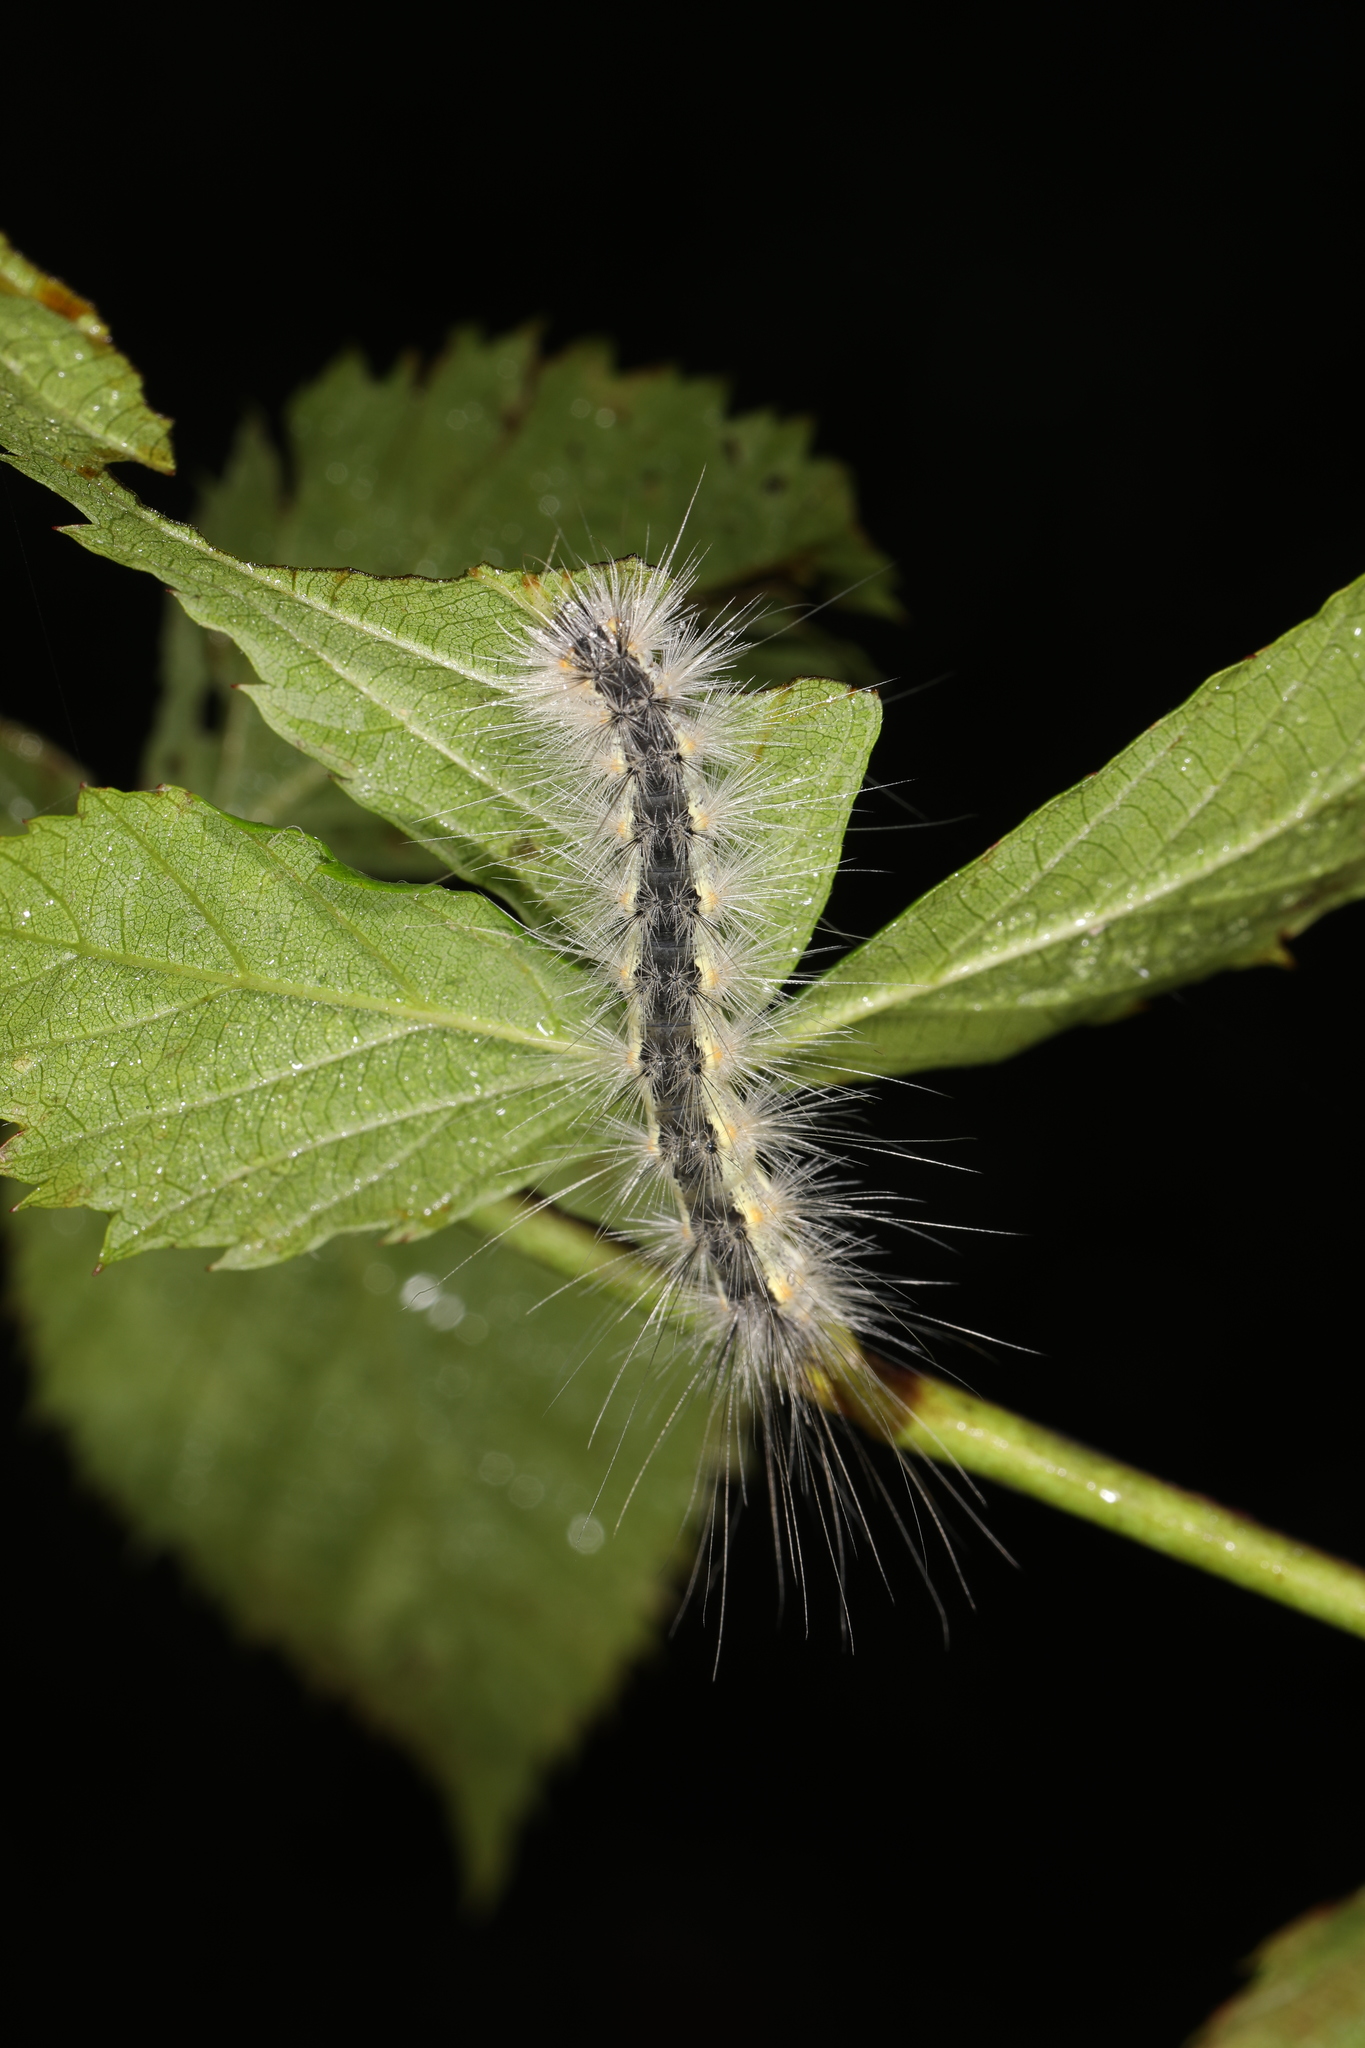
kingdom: Animalia
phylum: Arthropoda
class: Insecta
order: Lepidoptera
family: Erebidae
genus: Hyphantria
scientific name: Hyphantria cunea
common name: American white moth
